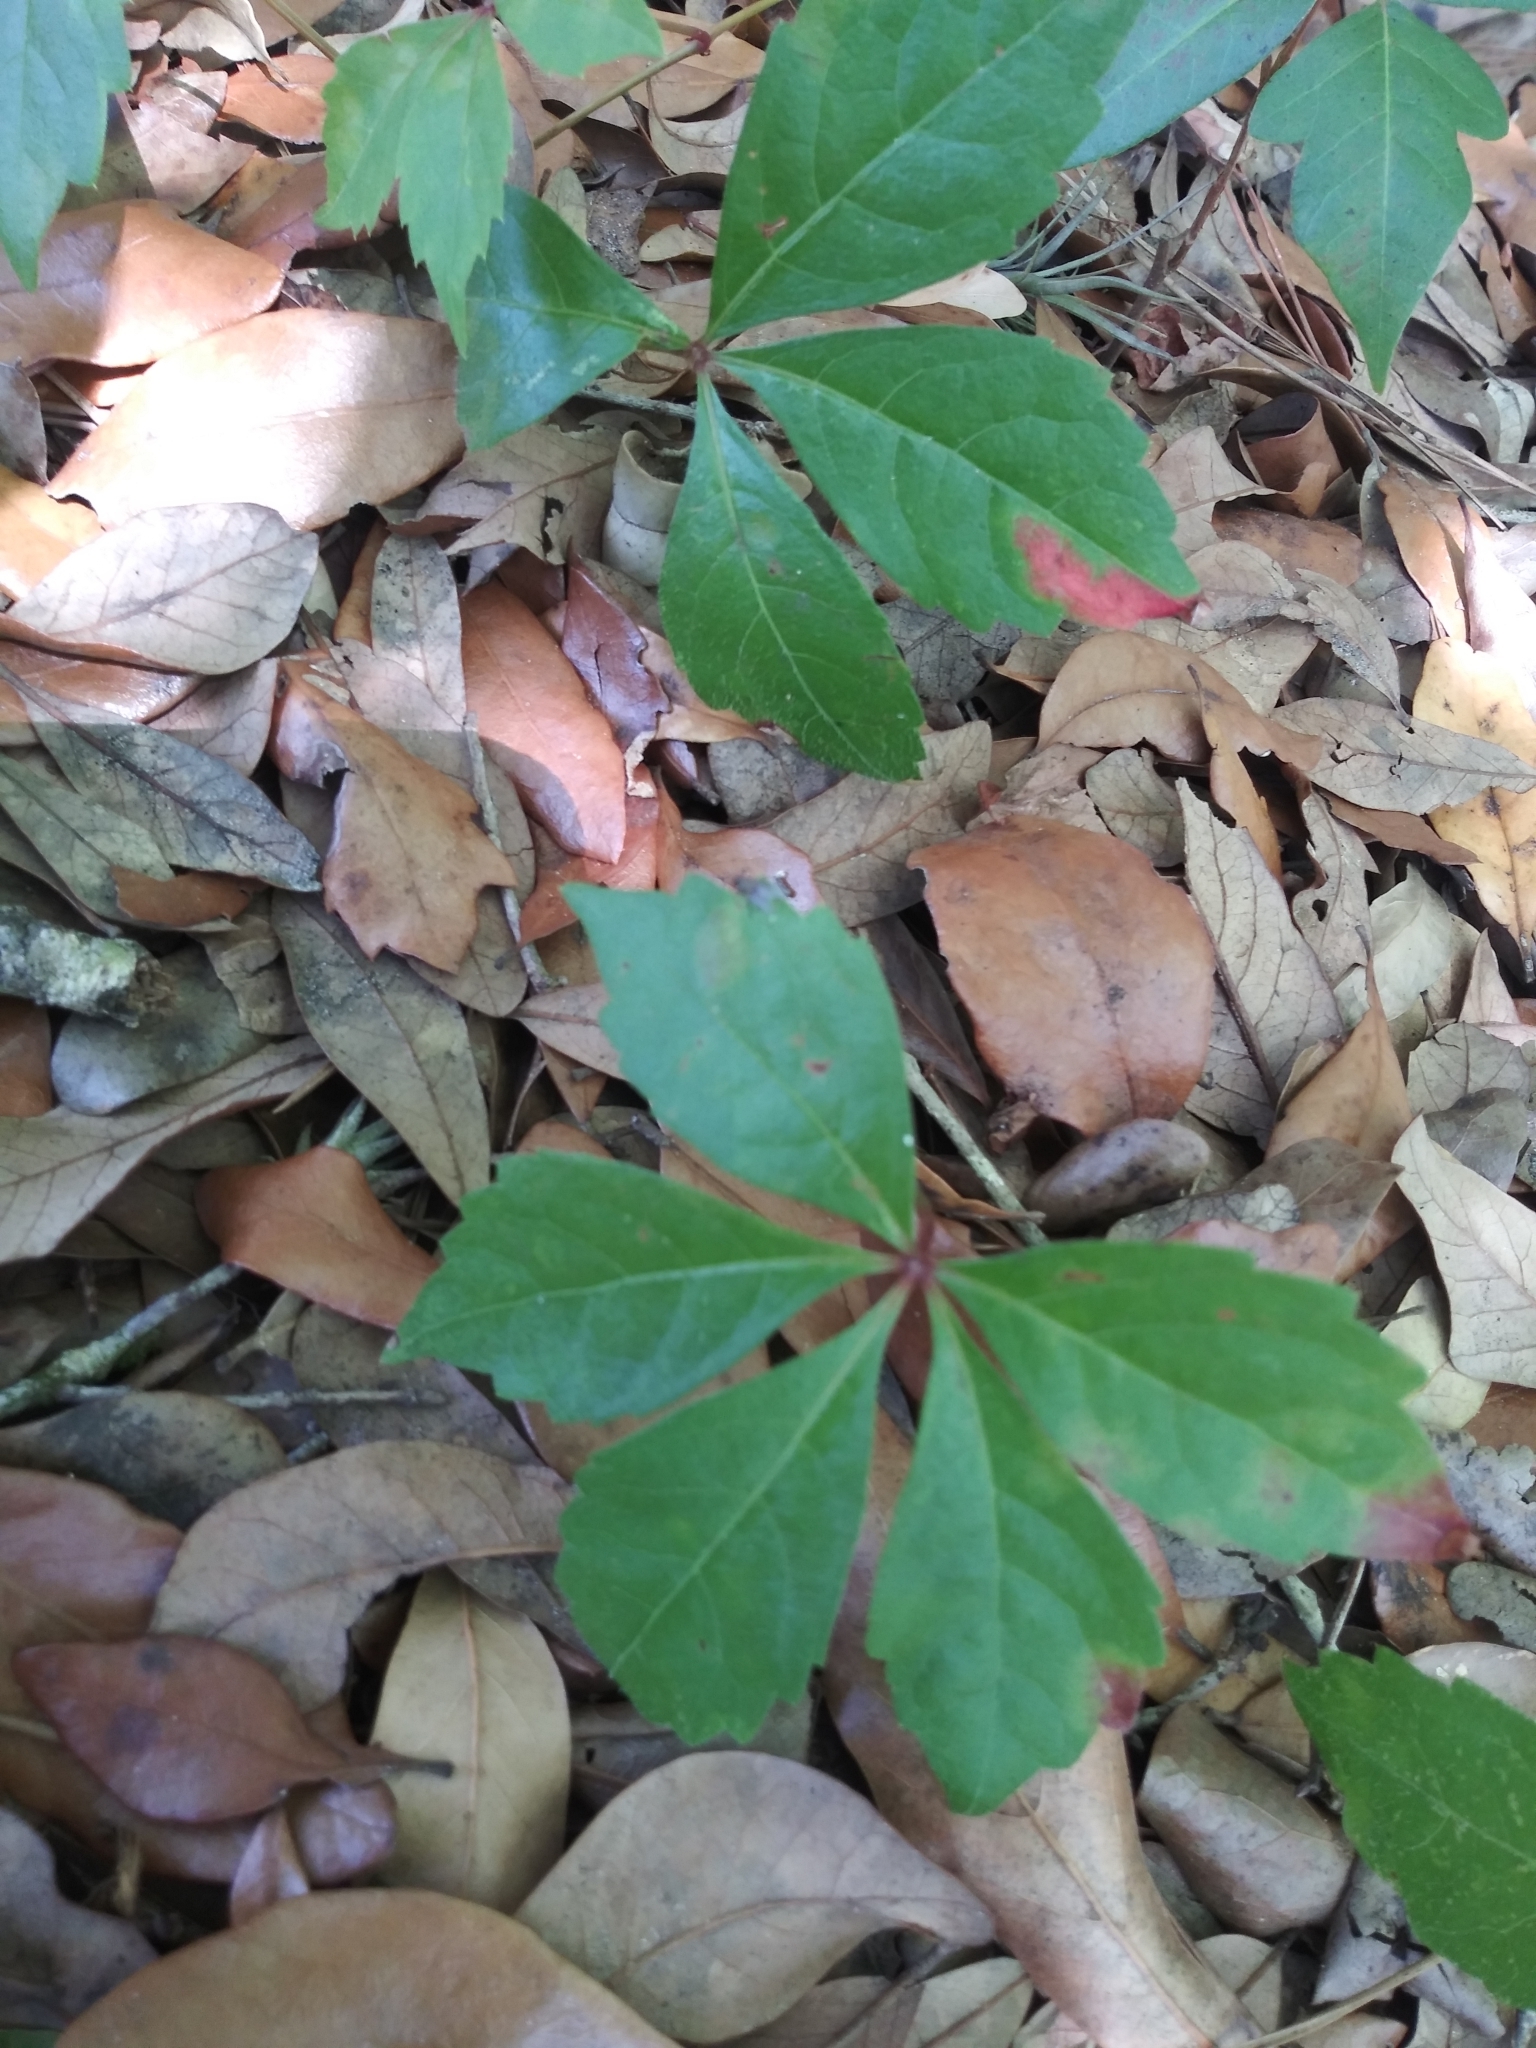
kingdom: Plantae
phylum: Tracheophyta
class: Magnoliopsida
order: Vitales
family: Vitaceae
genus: Parthenocissus
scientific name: Parthenocissus quinquefolia
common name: Virginia-creeper
